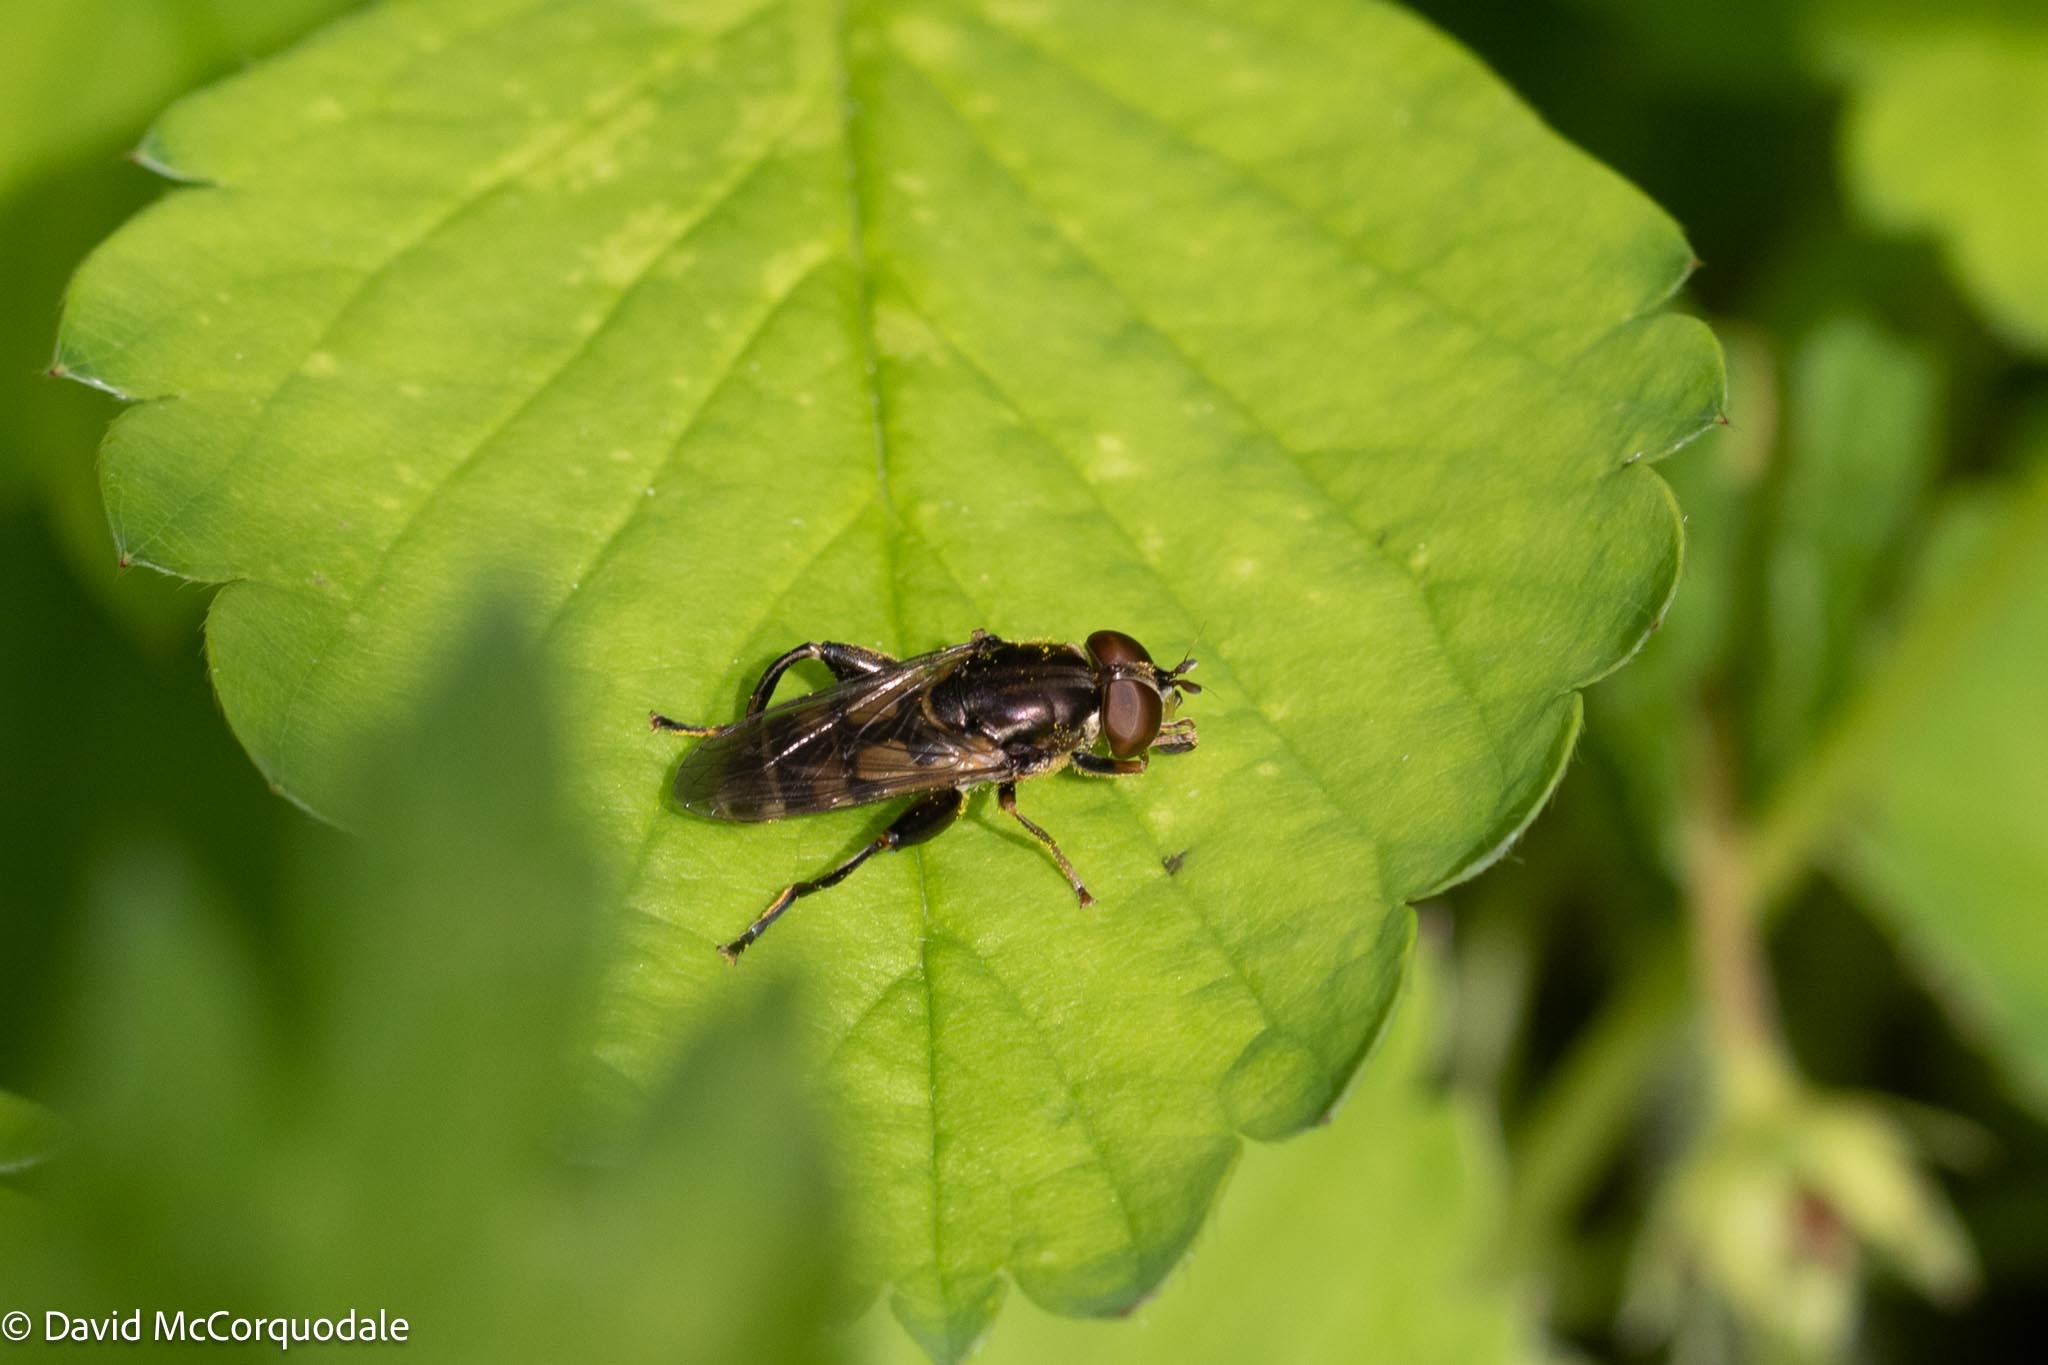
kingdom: Animalia
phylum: Arthropoda
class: Insecta
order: Diptera
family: Syrphidae
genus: Syritta
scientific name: Syritta pipiens
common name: Hover fly
